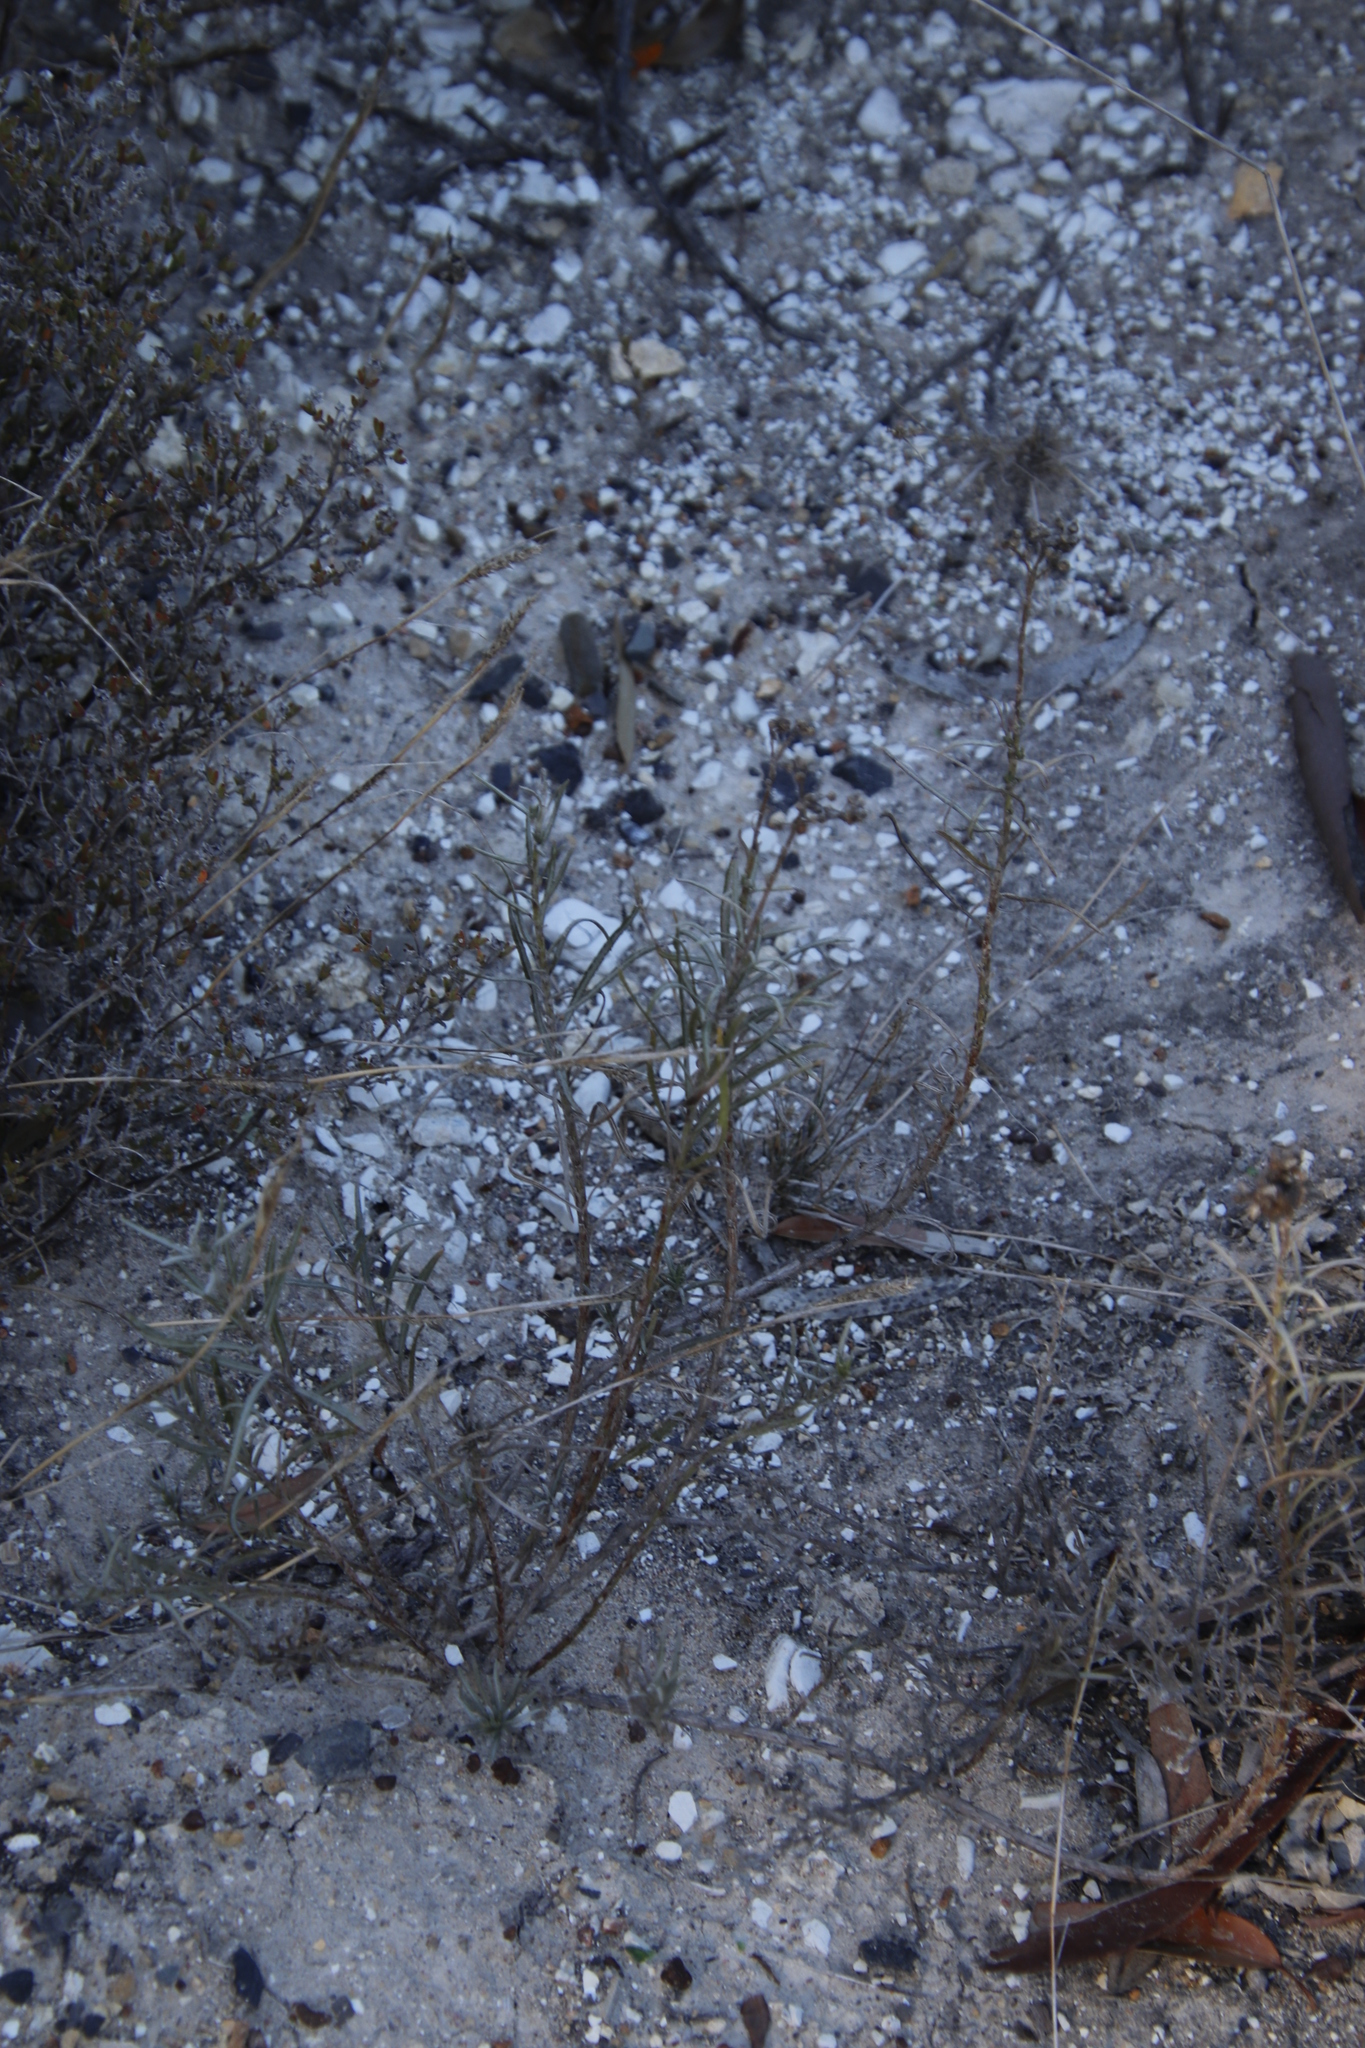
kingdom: Plantae
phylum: Tracheophyta
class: Magnoliopsida
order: Asterales
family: Asteraceae
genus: Senecio
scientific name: Senecio rosmarinifolius
